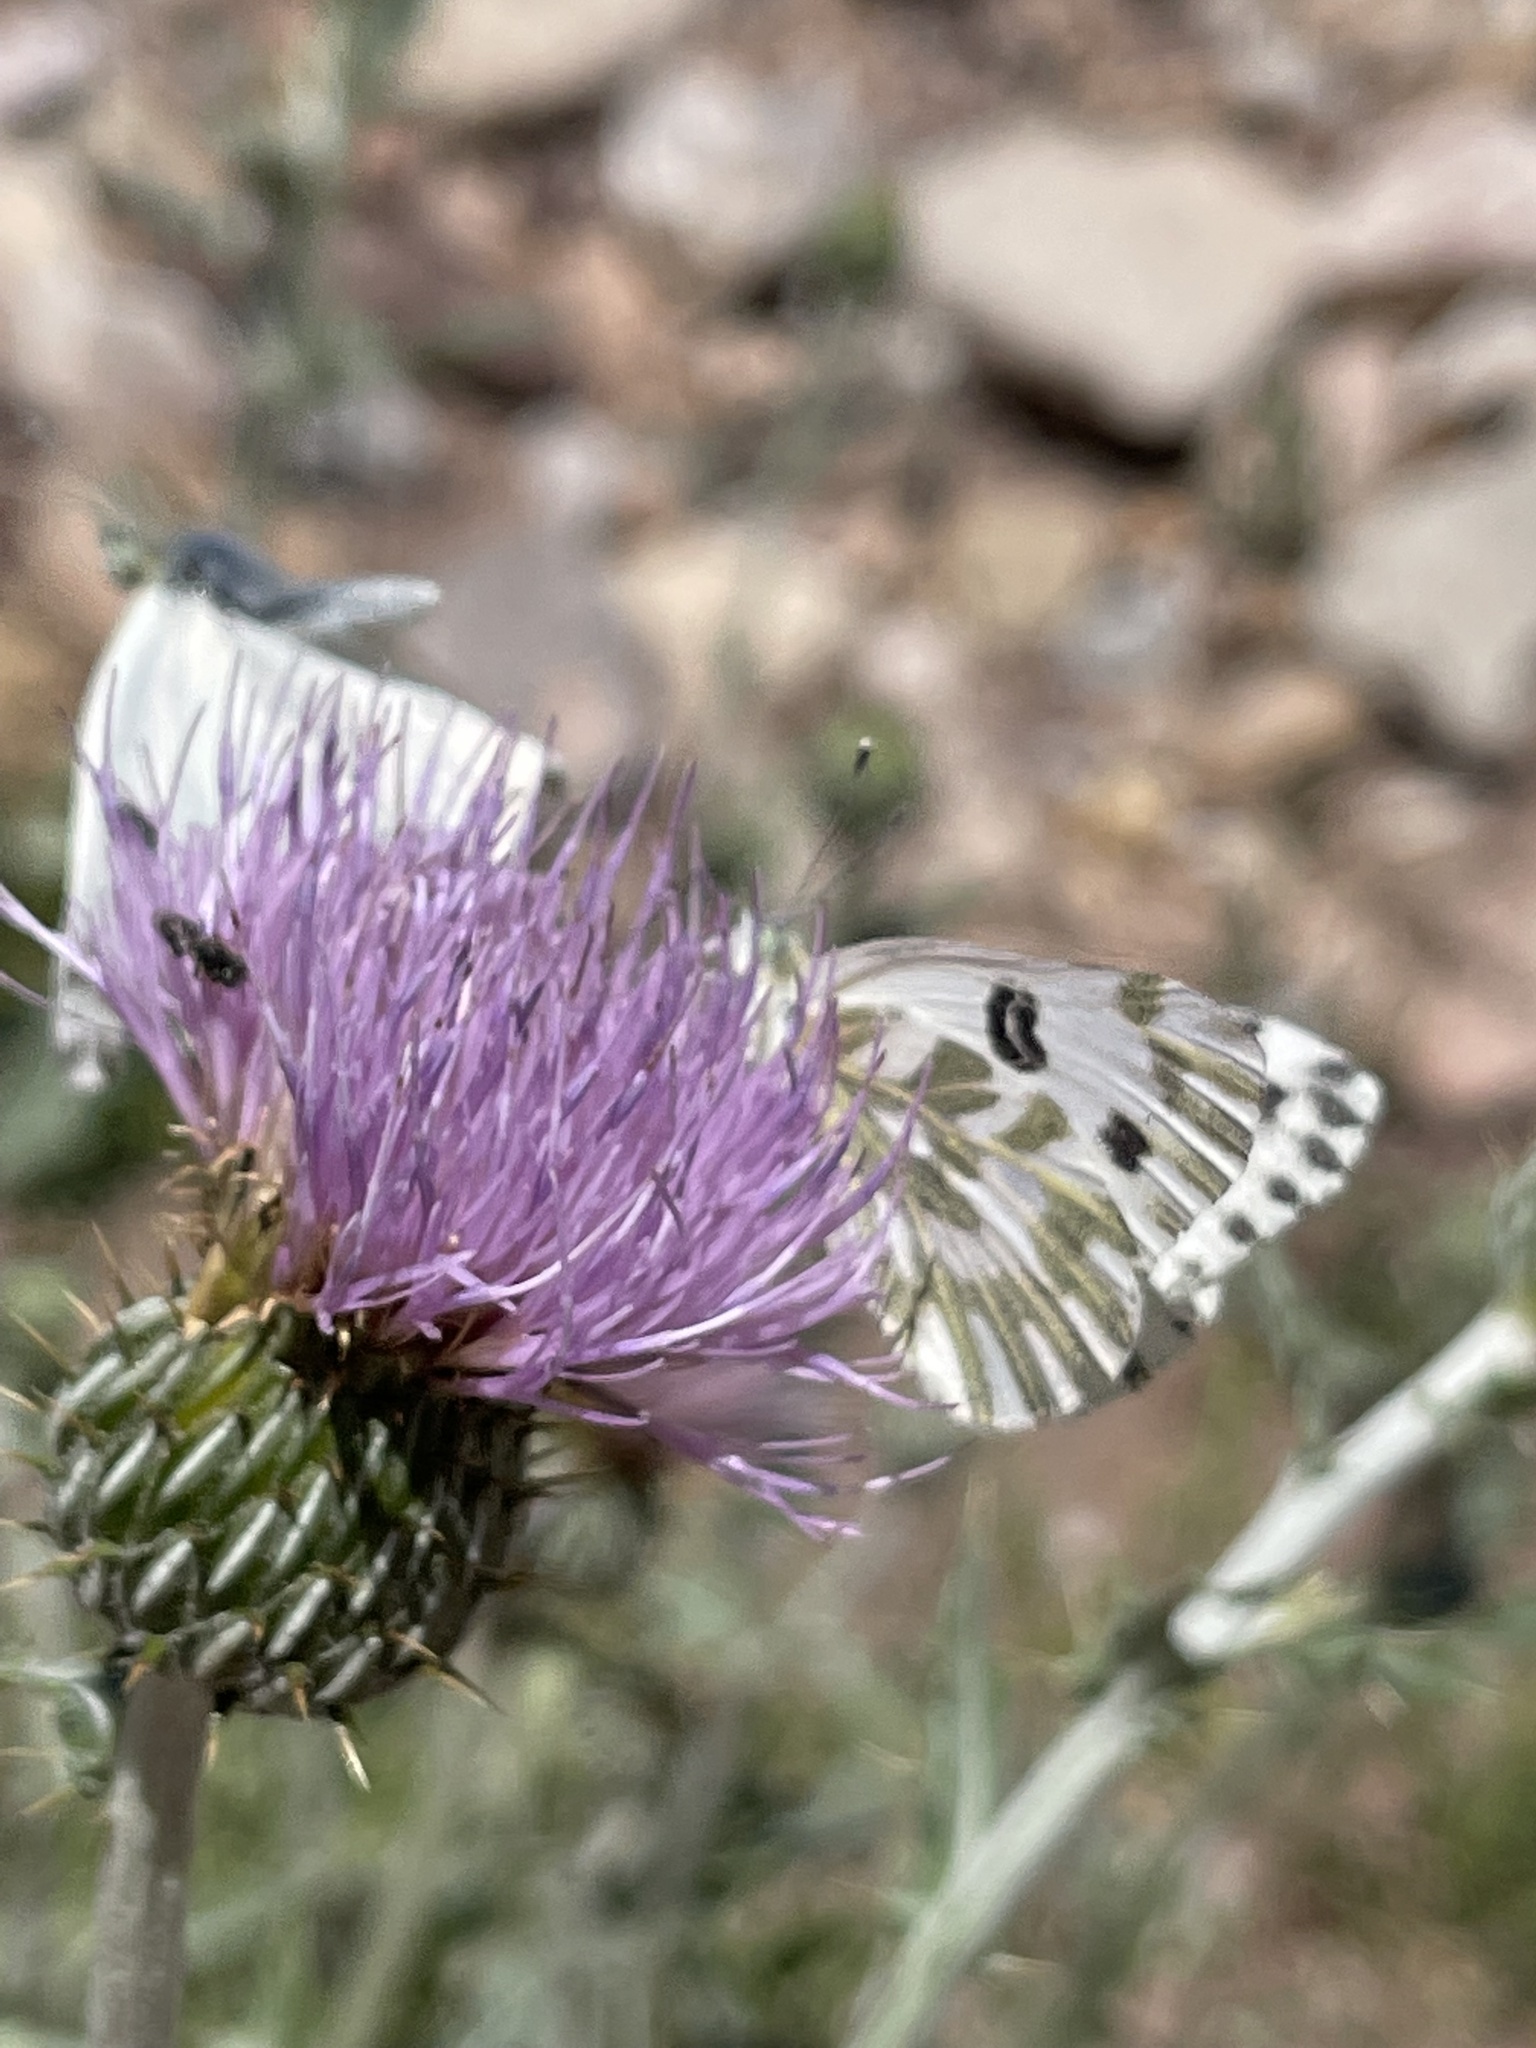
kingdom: Animalia
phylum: Arthropoda
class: Insecta
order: Lepidoptera
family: Pieridae
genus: Pontia
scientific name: Pontia beckerii
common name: Becker's white
